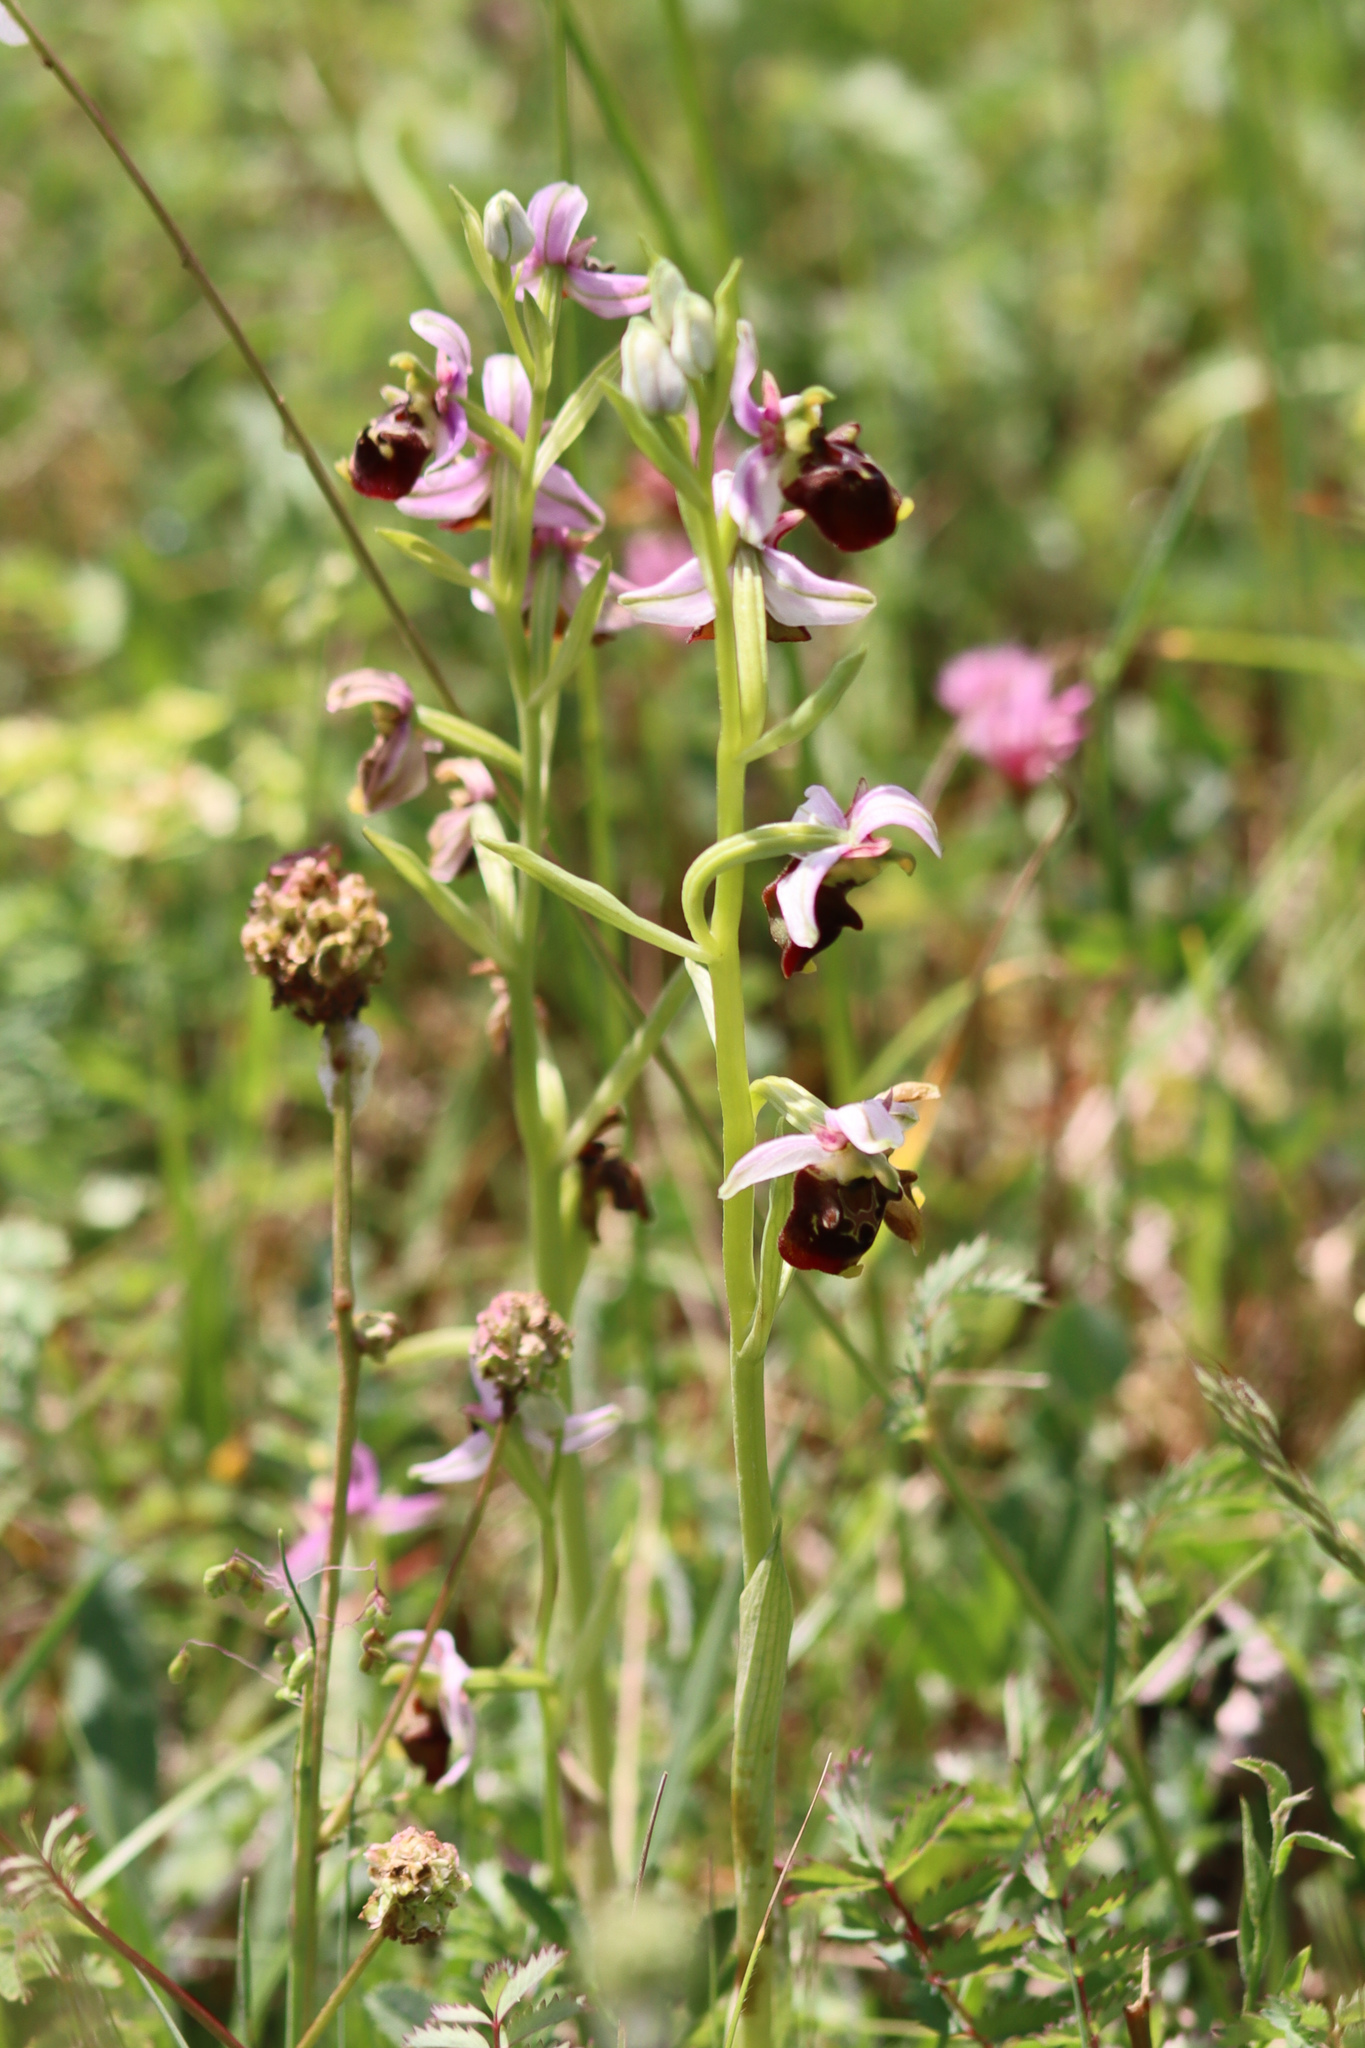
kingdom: Plantae
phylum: Tracheophyta
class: Liliopsida
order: Asparagales
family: Orchidaceae
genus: Ophrys
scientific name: Ophrys holosericea
